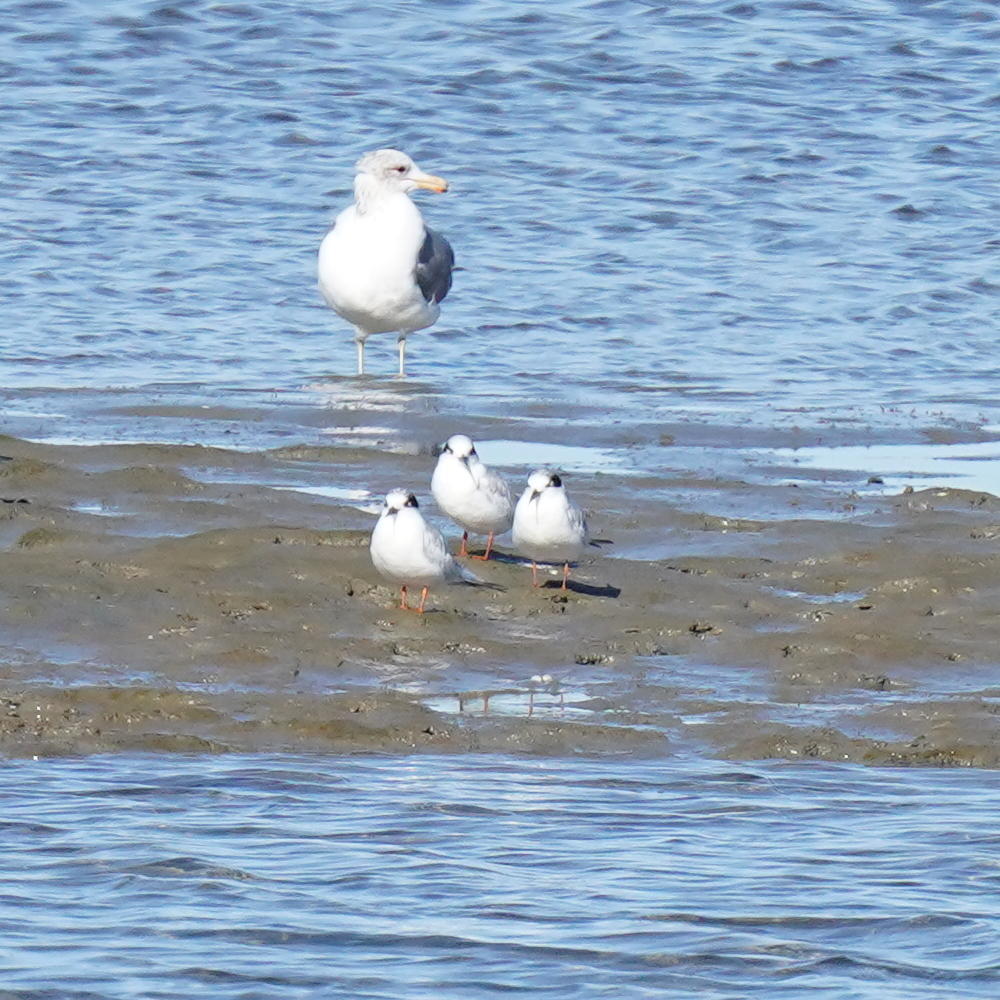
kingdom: Animalia
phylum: Chordata
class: Aves
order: Charadriiformes
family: Laridae
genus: Sterna
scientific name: Sterna forsteri
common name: Forster's tern
